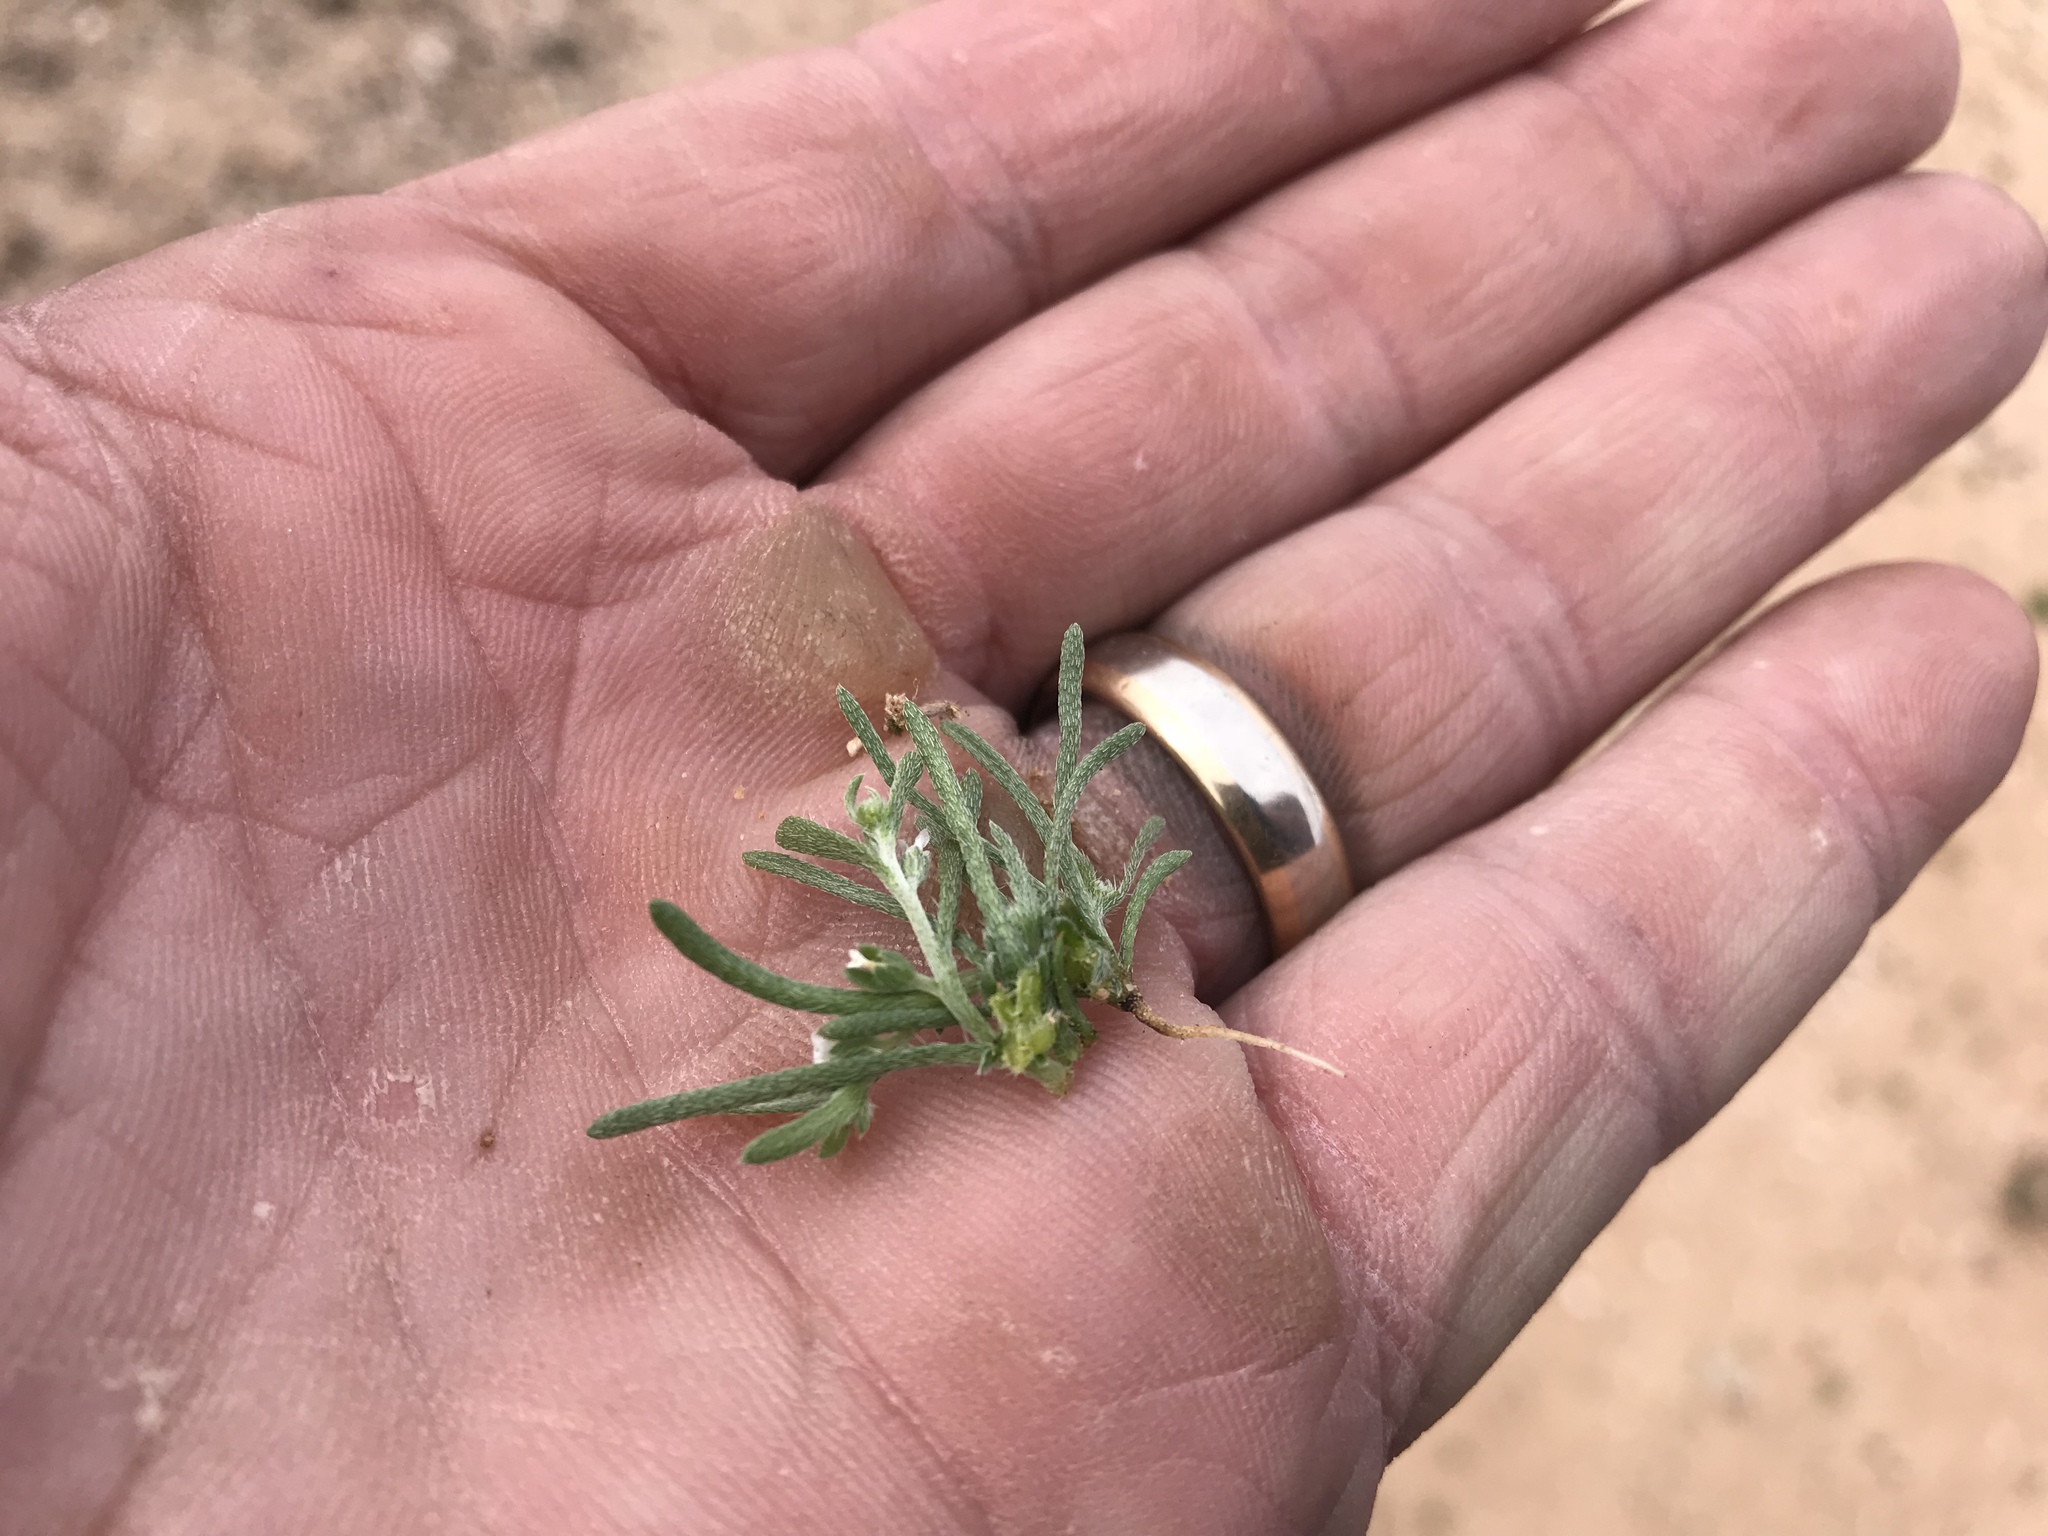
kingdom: Plantae
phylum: Tracheophyta
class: Magnoliopsida
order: Boraginales
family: Boraginaceae
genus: Pectocarya
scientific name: Pectocarya heterocarpa
